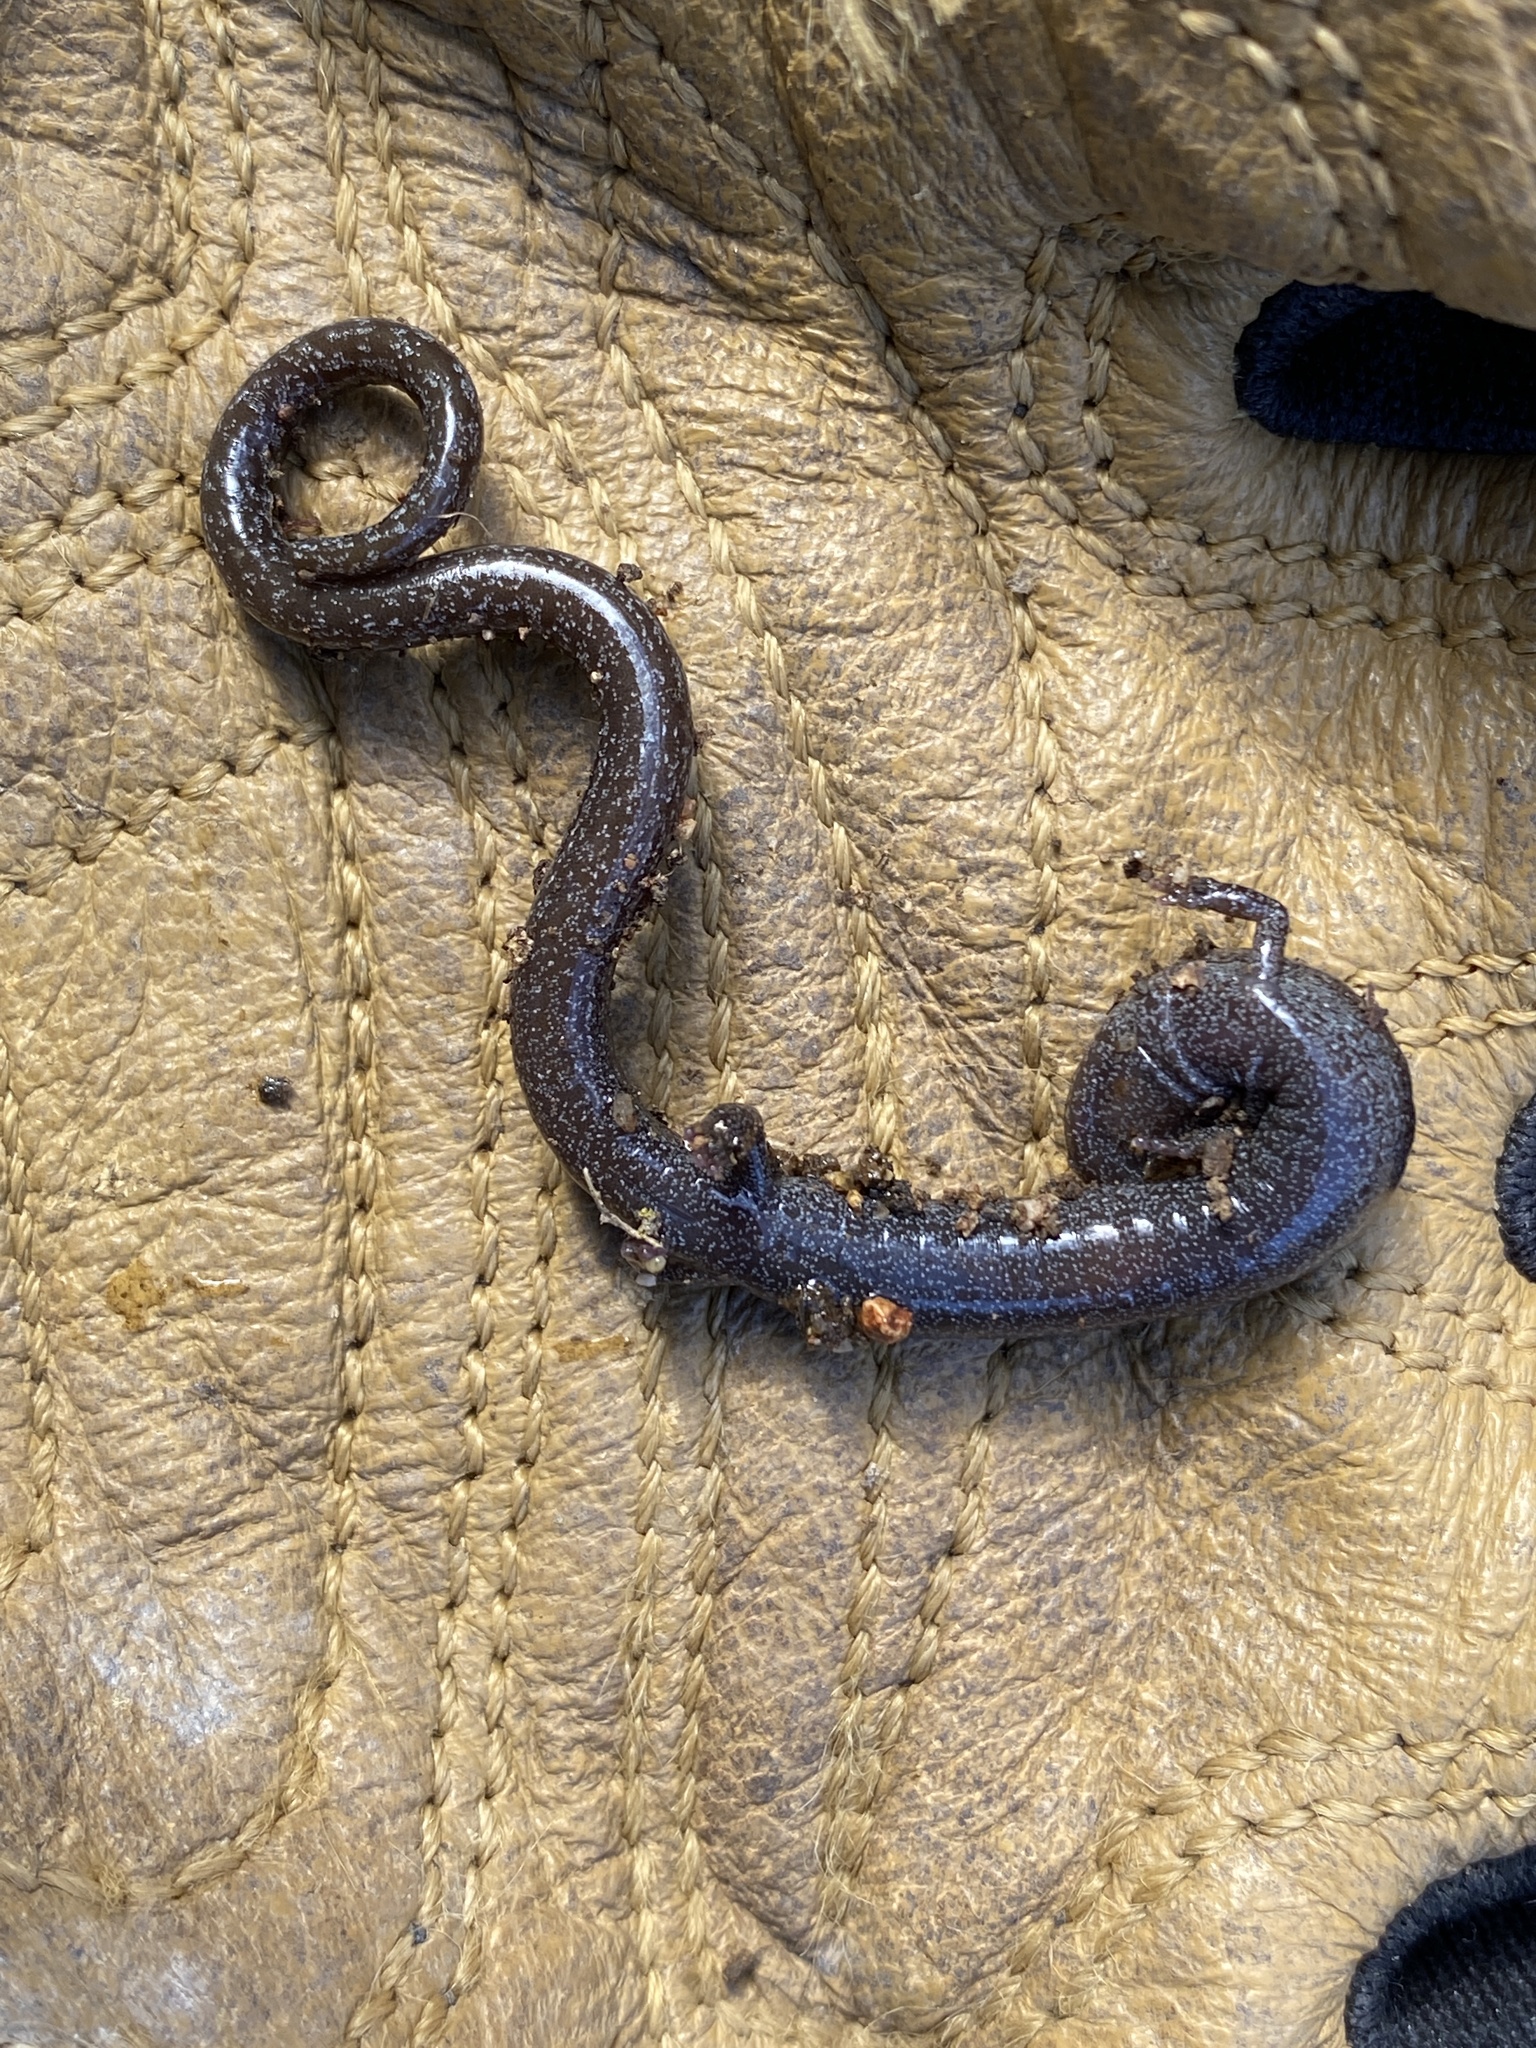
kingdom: Animalia
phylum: Chordata
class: Amphibia
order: Caudata
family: Plethodontidae
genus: Batrachoseps
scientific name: Batrachoseps gavilanensis
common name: Gabilan mountains slender salamander
